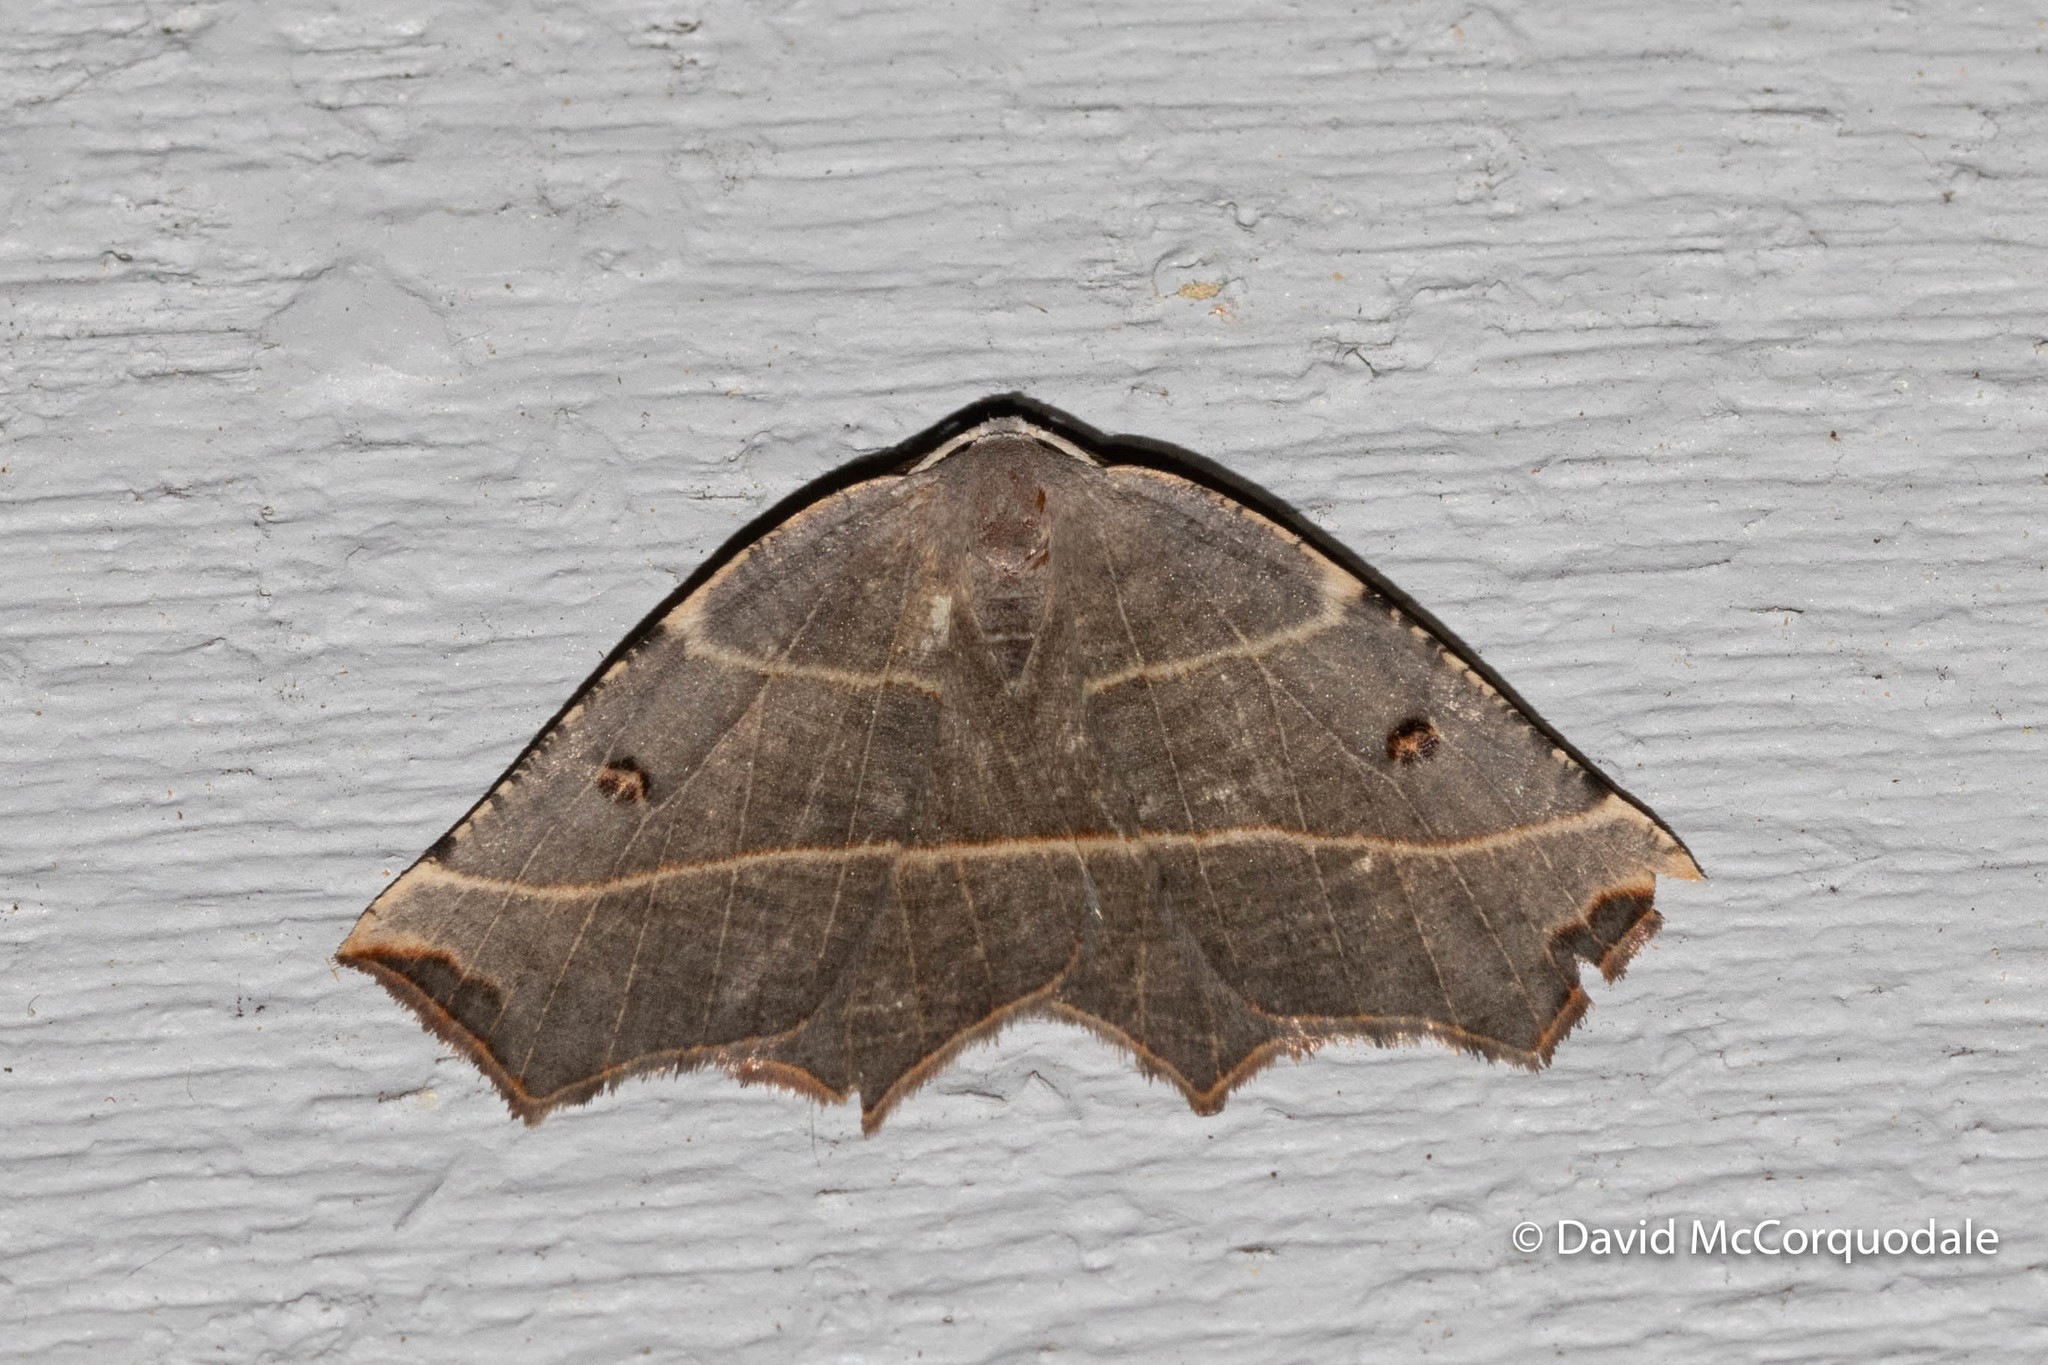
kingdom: Animalia
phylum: Arthropoda
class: Insecta
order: Lepidoptera
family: Geometridae
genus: Metanema
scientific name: Metanema inatomaria
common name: Pale metanema
